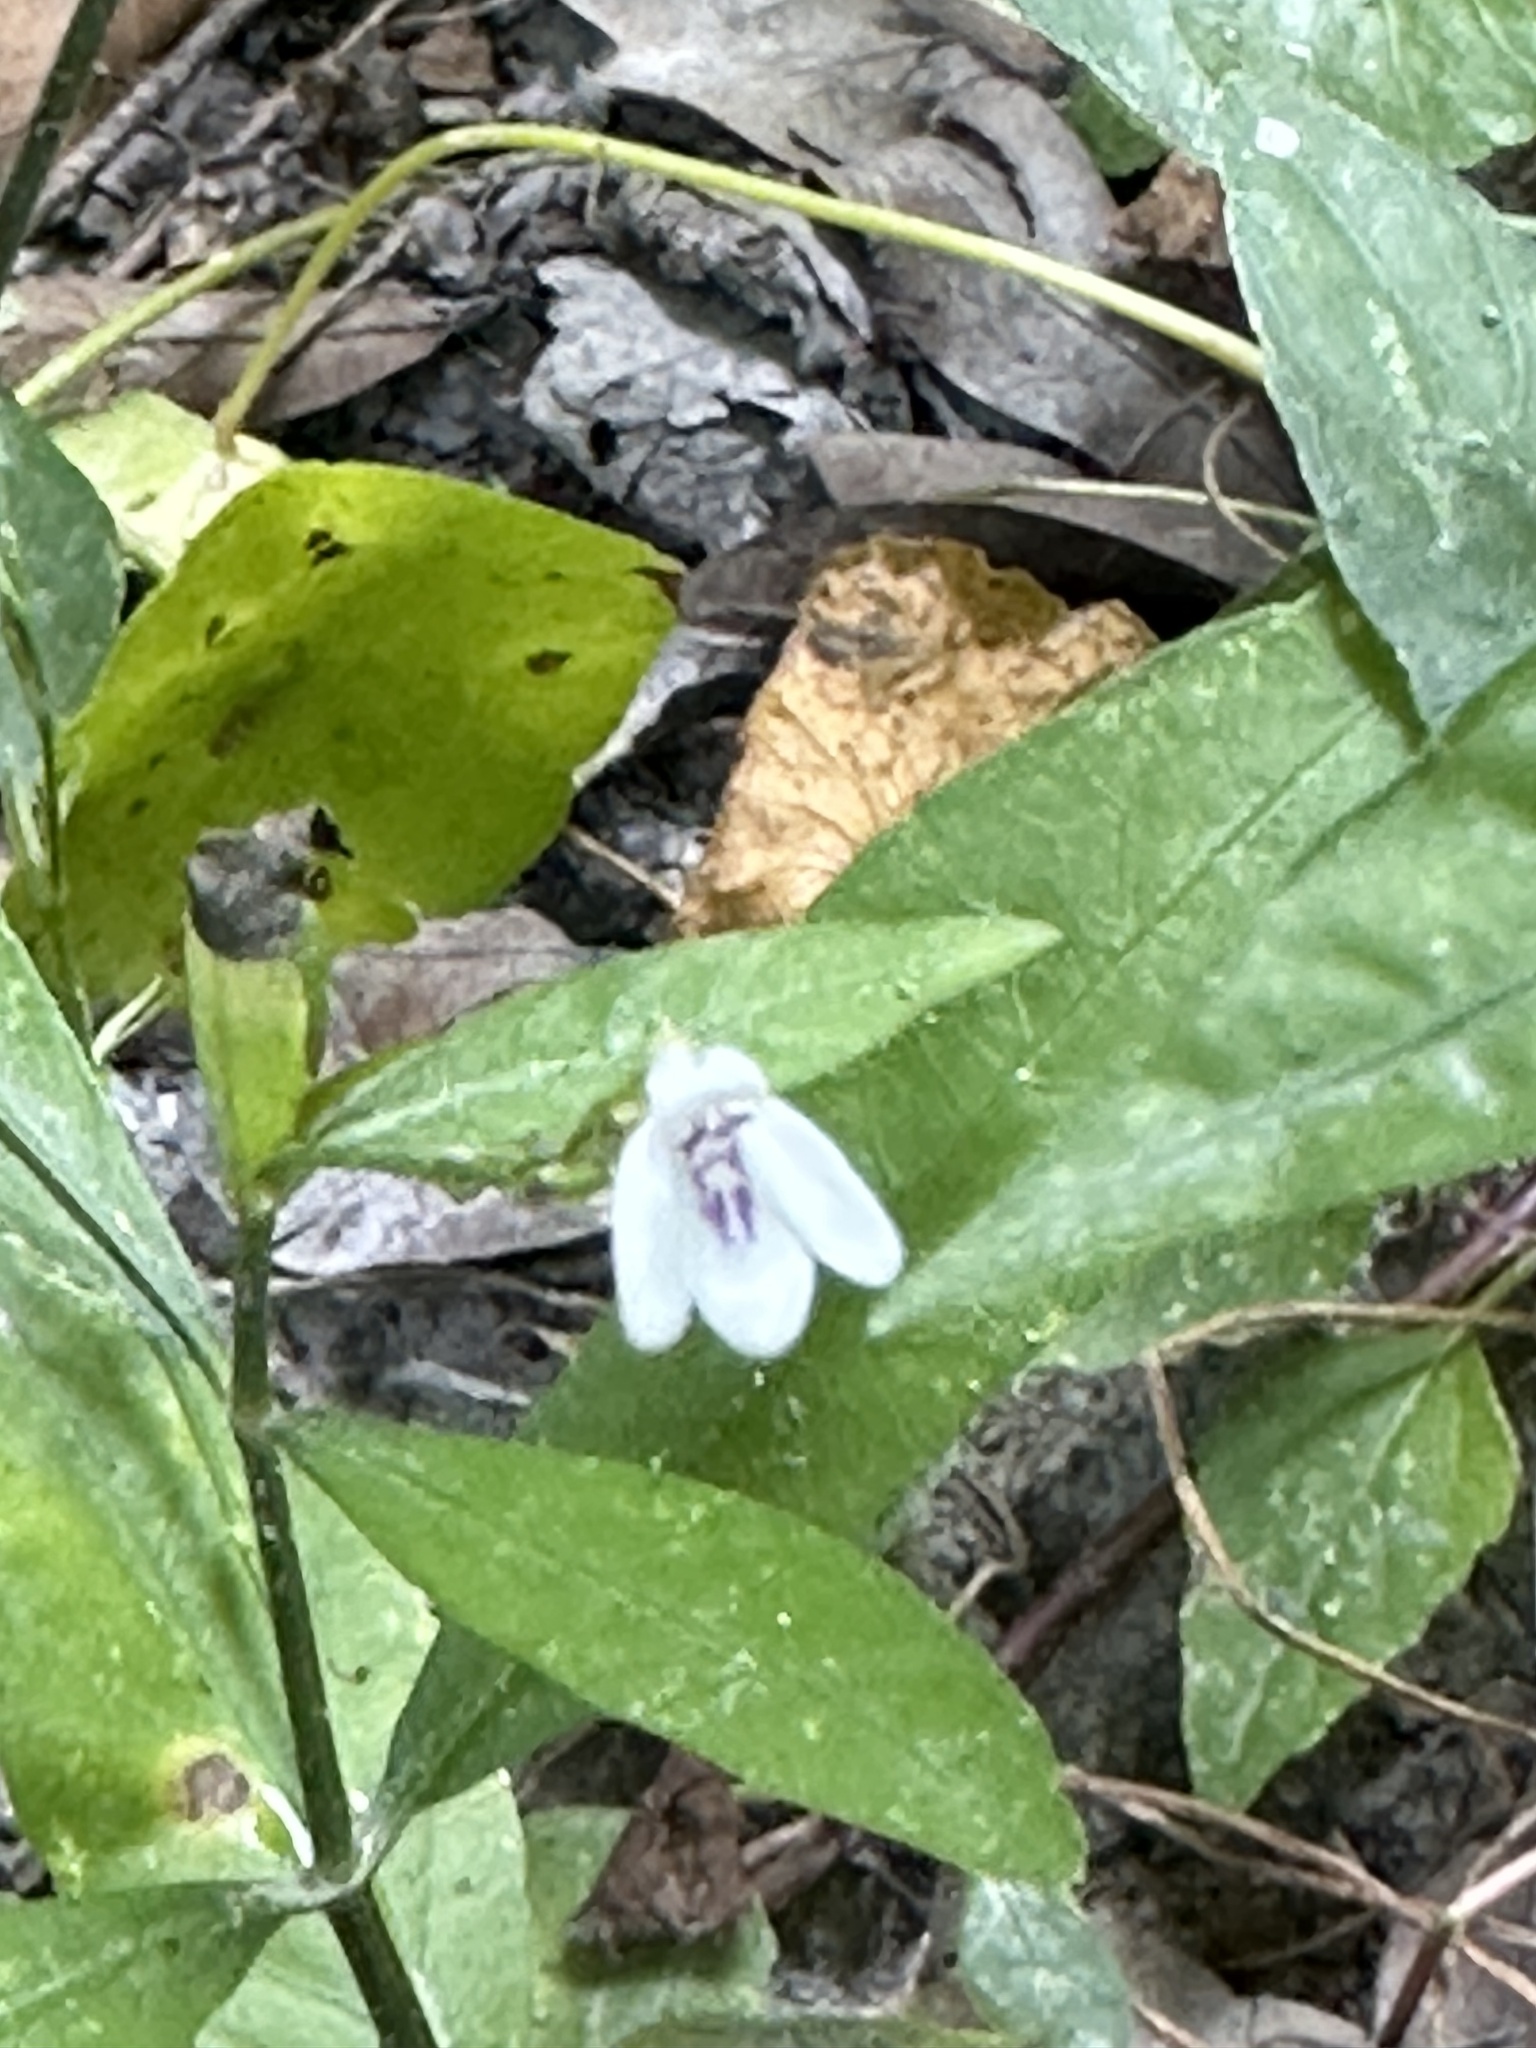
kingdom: Plantae
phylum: Tracheophyta
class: Magnoliopsida
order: Lamiales
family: Acanthaceae
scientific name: Acanthaceae
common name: Acanthaceae
